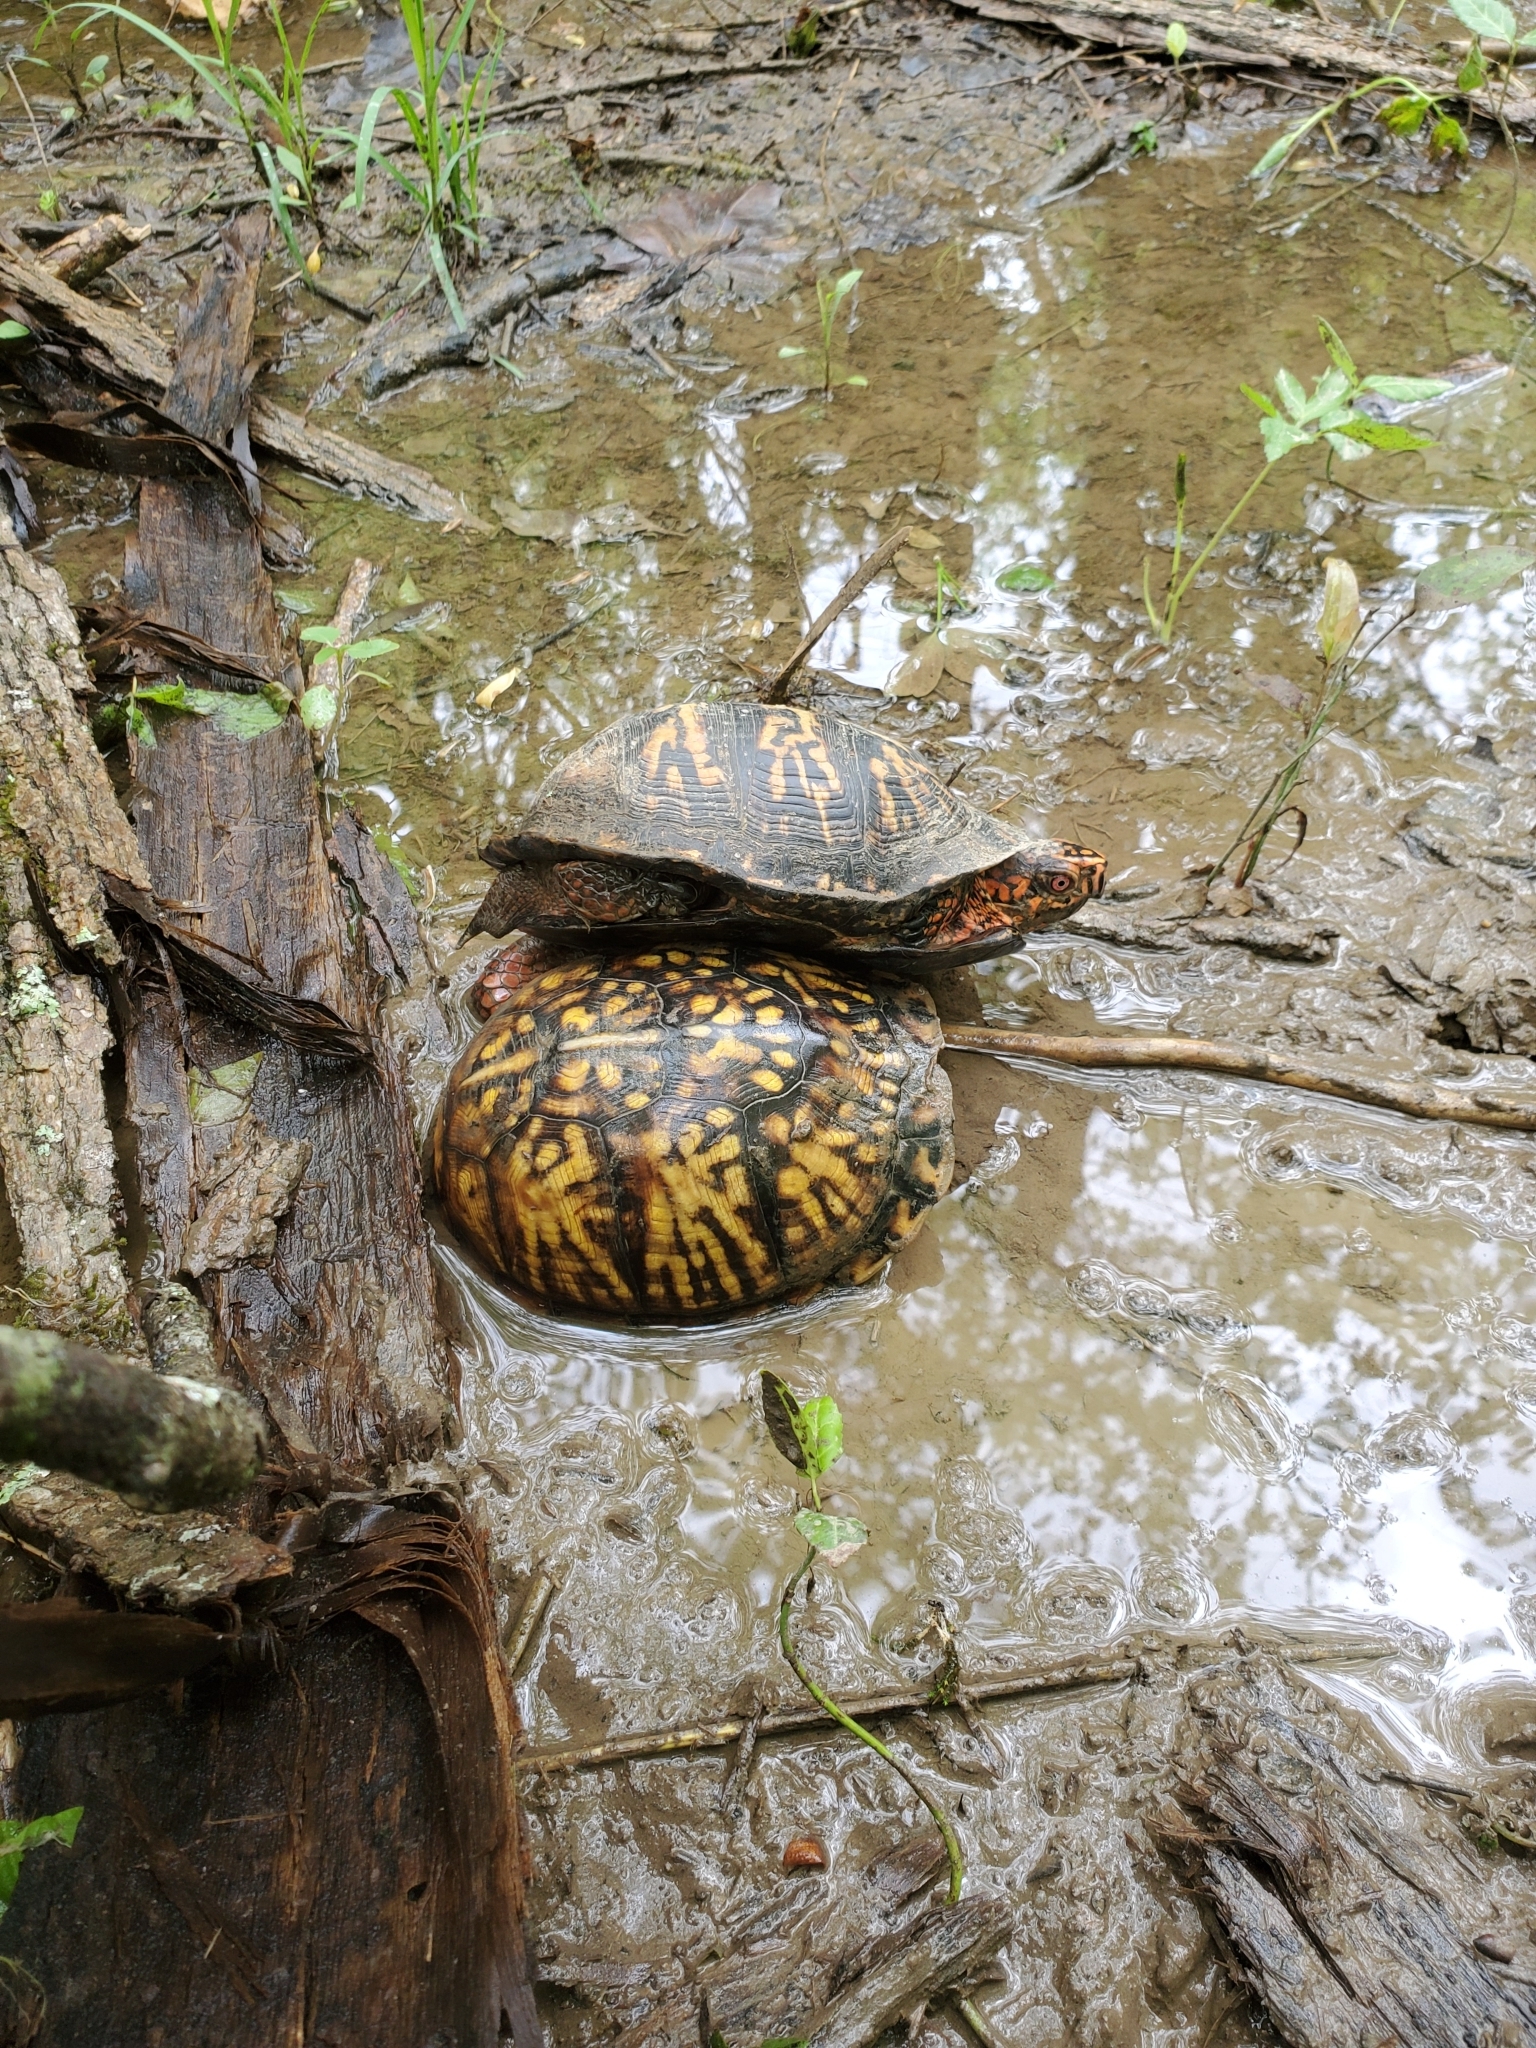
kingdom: Animalia
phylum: Chordata
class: Testudines
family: Emydidae
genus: Terrapene
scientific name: Terrapene carolina
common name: Common box turtle
